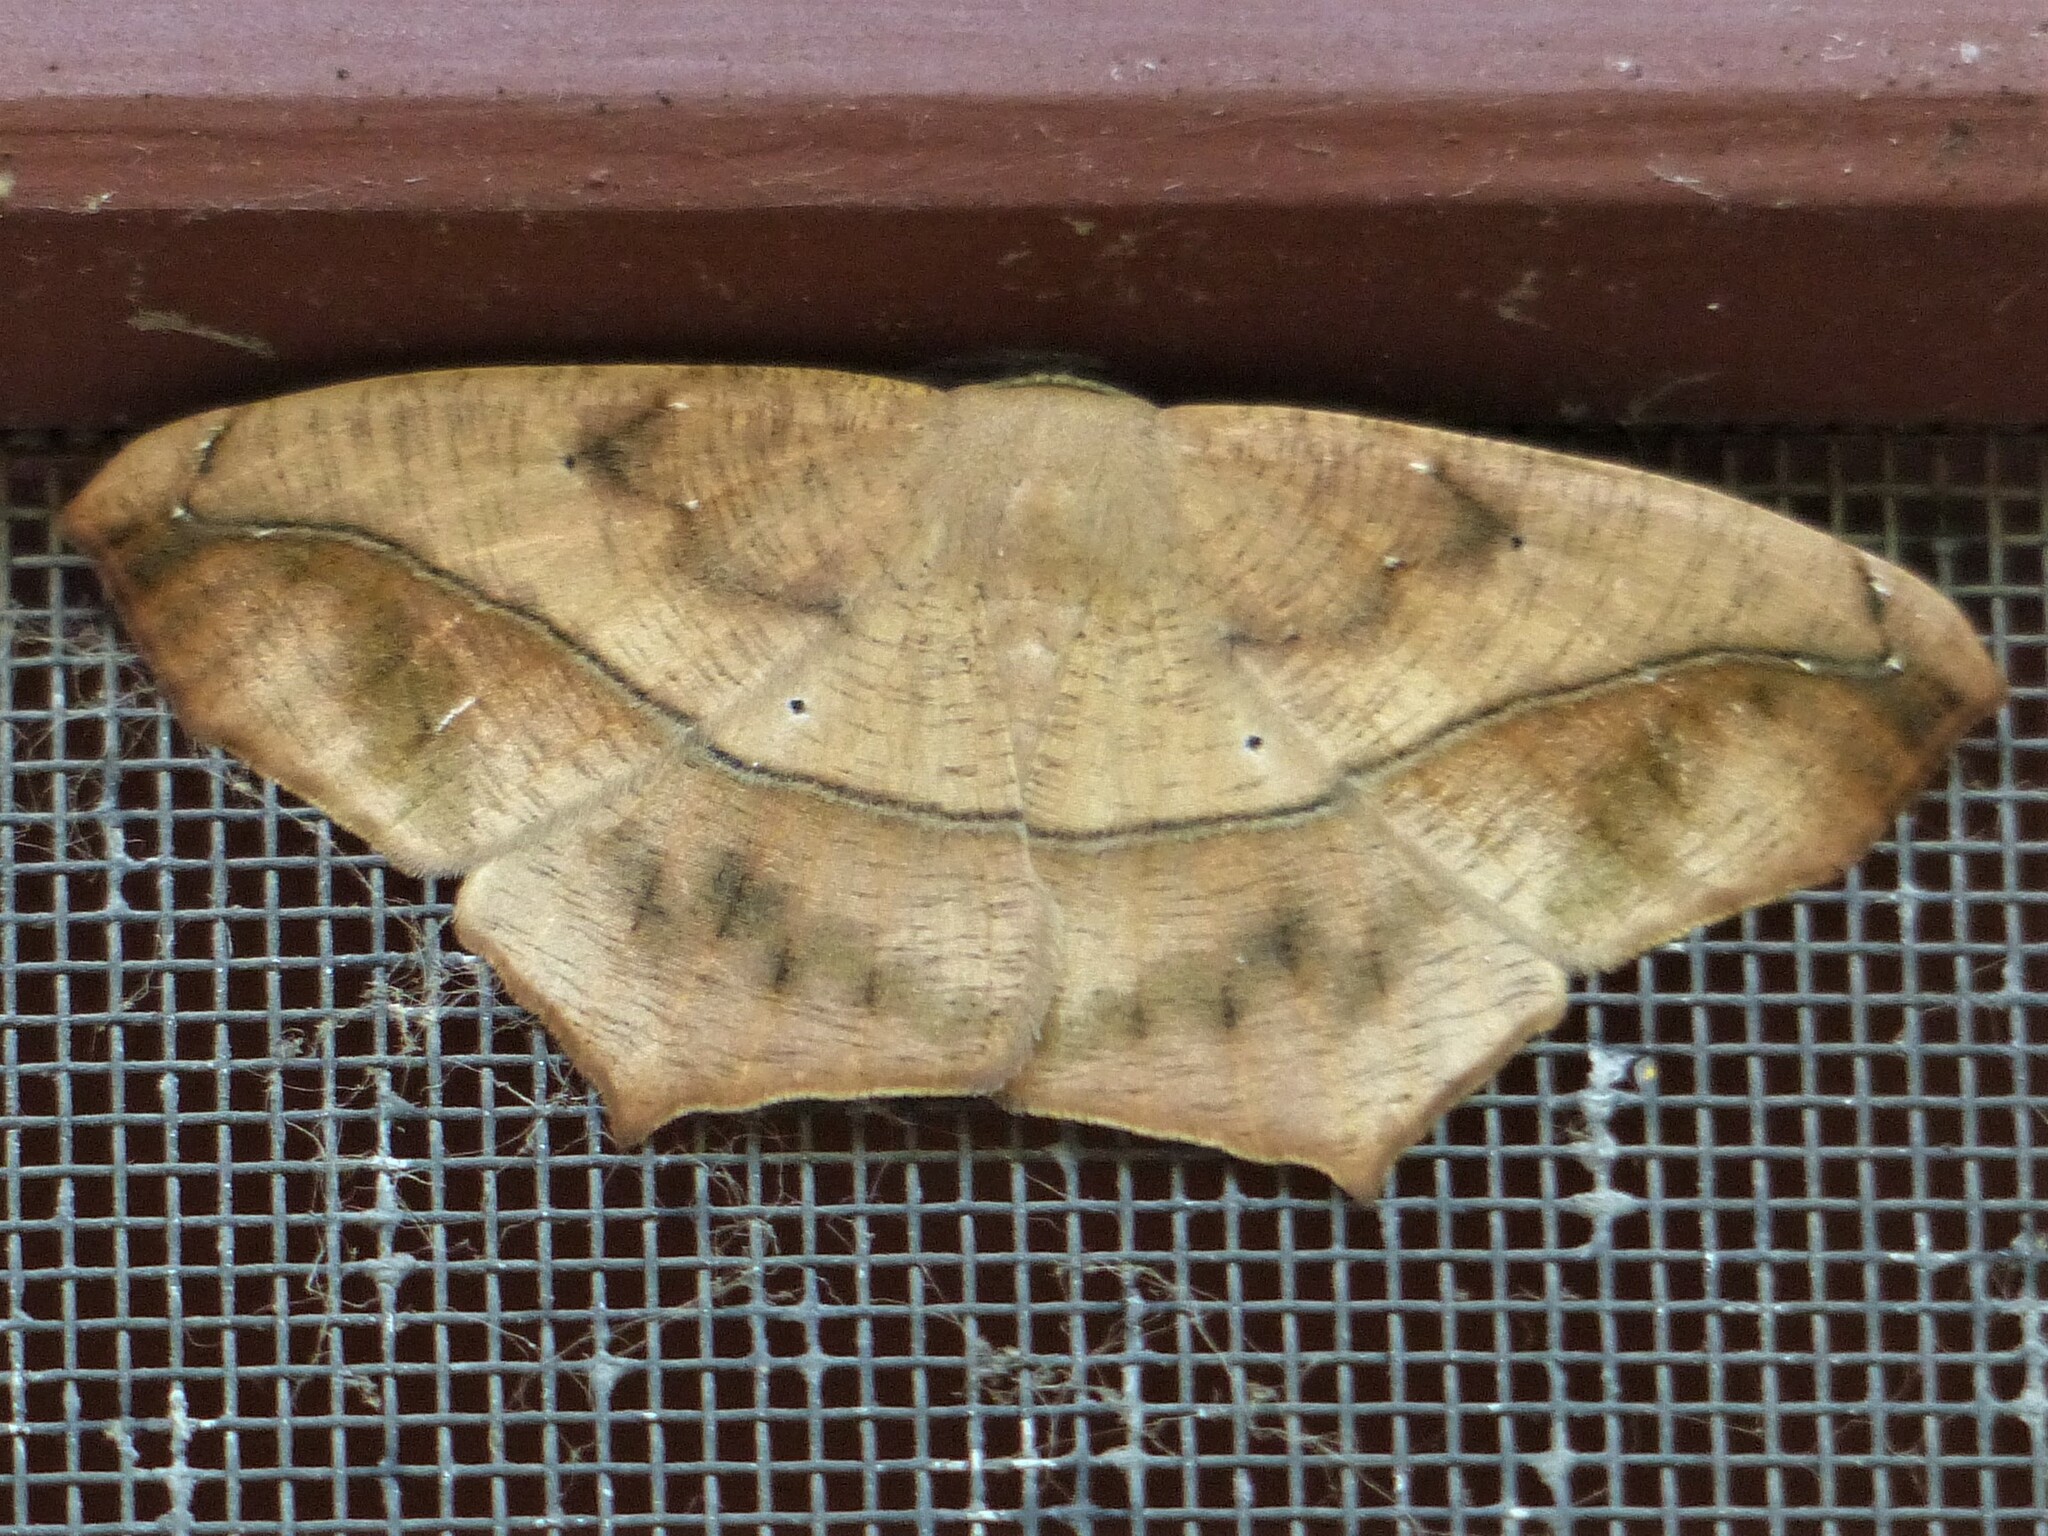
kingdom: Animalia
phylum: Arthropoda
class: Insecta
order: Lepidoptera
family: Geometridae
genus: Prochoerodes
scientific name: Prochoerodes lineola
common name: Large maple spanworm
